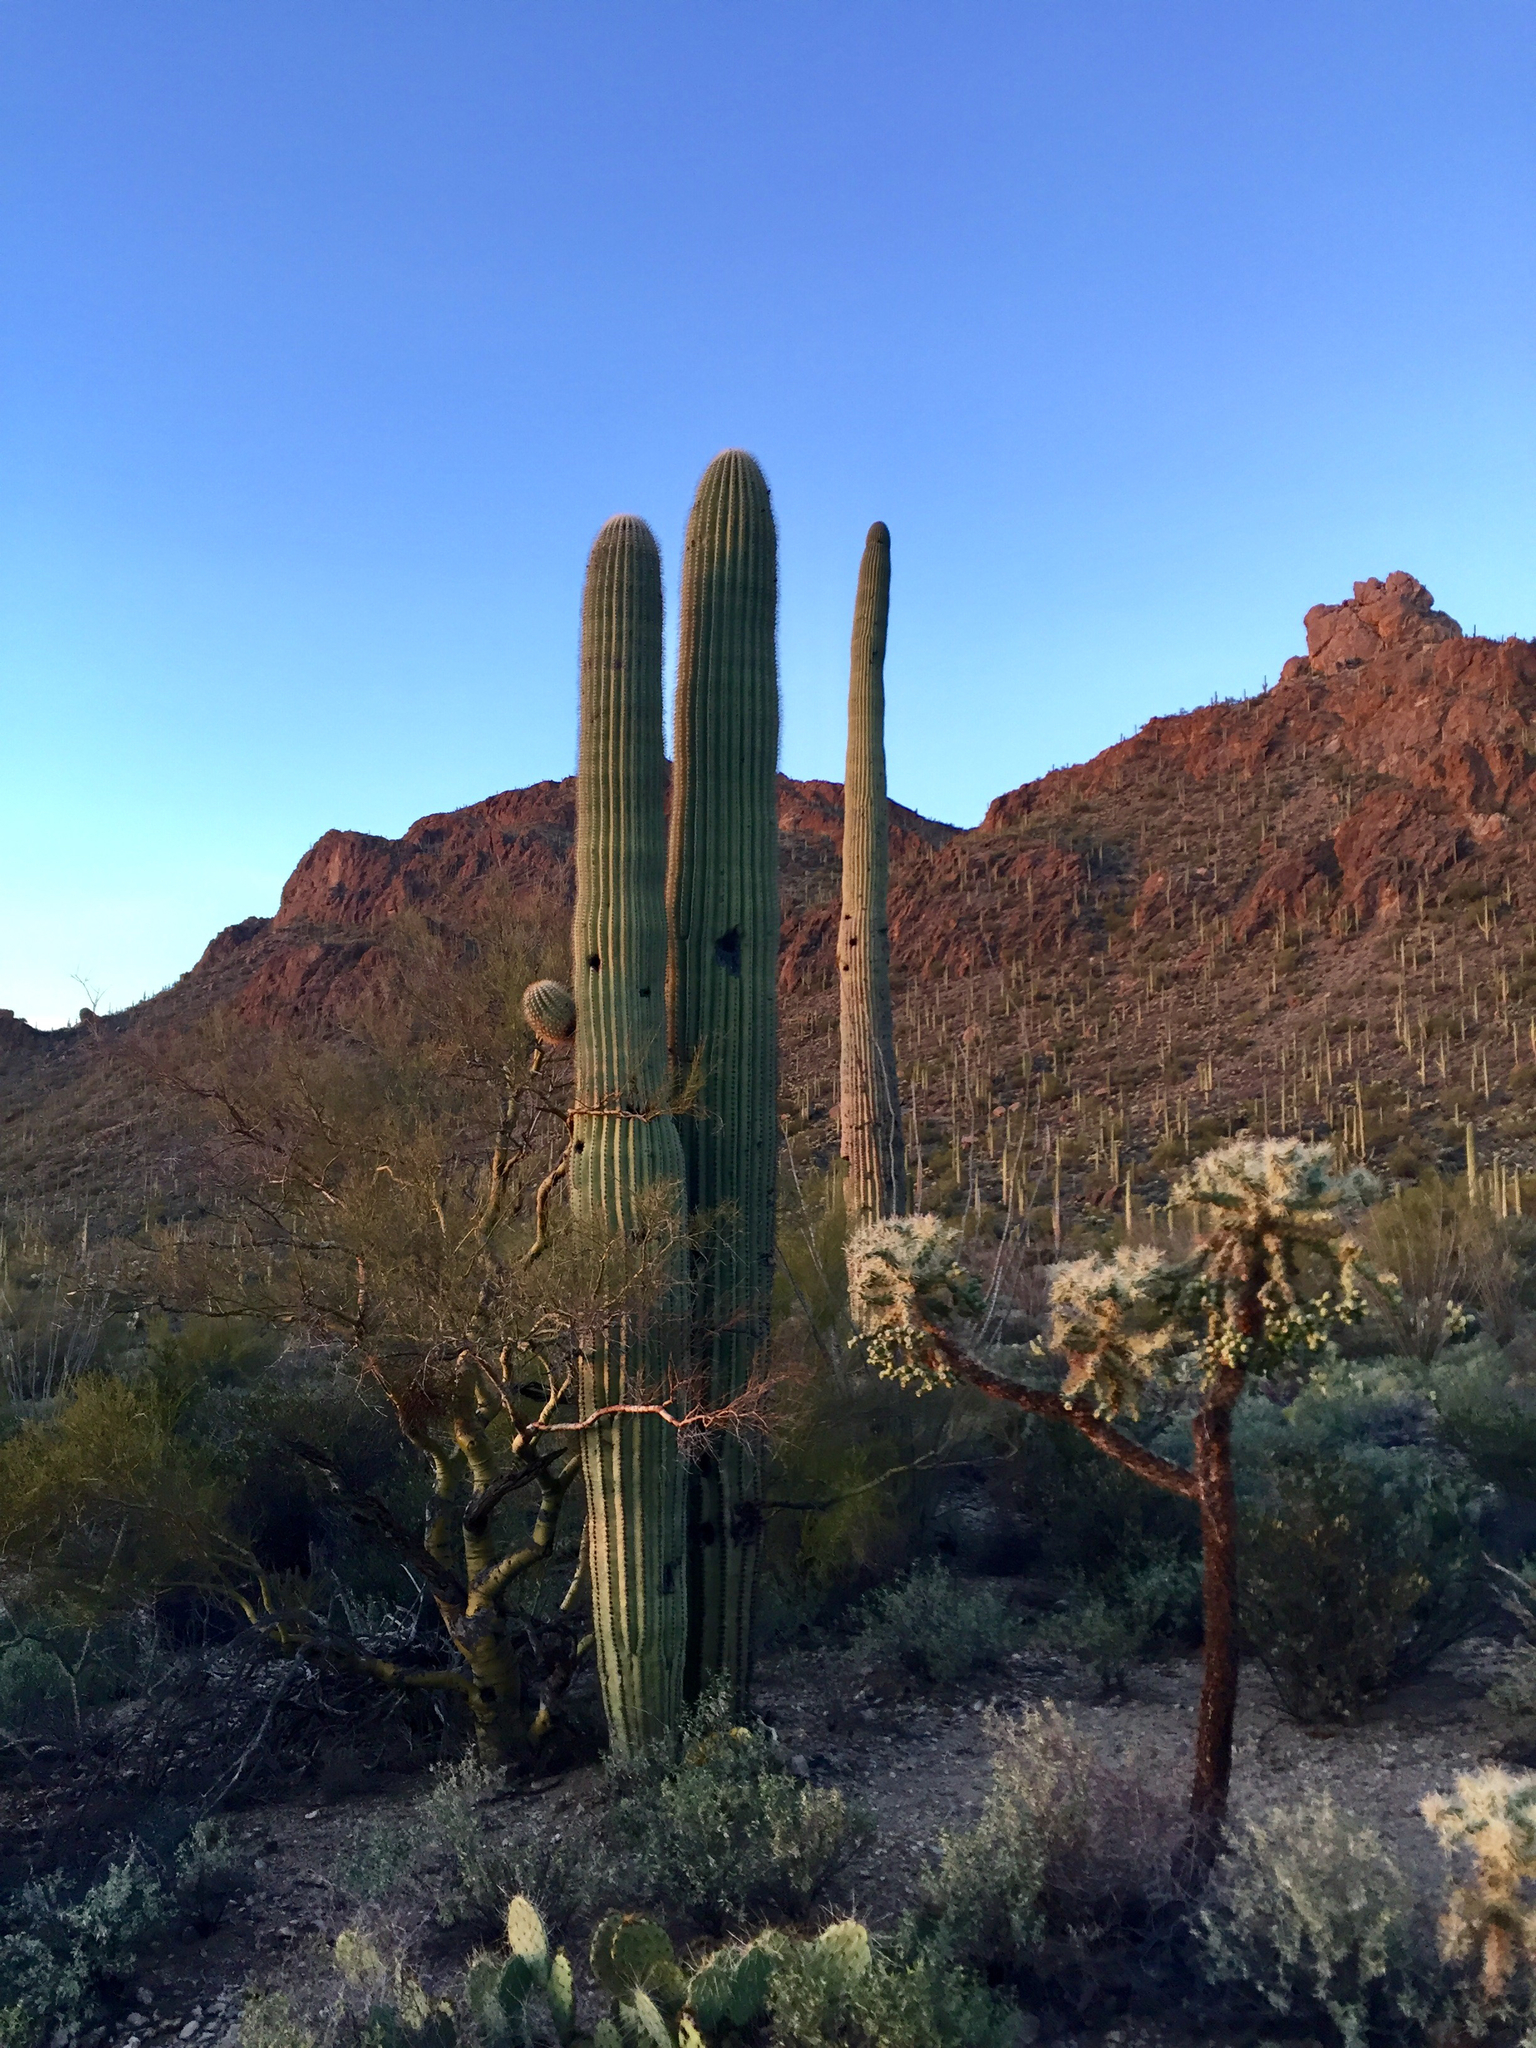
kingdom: Plantae
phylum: Tracheophyta
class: Magnoliopsida
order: Caryophyllales
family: Cactaceae
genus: Carnegiea
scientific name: Carnegiea gigantea
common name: Saguaro
